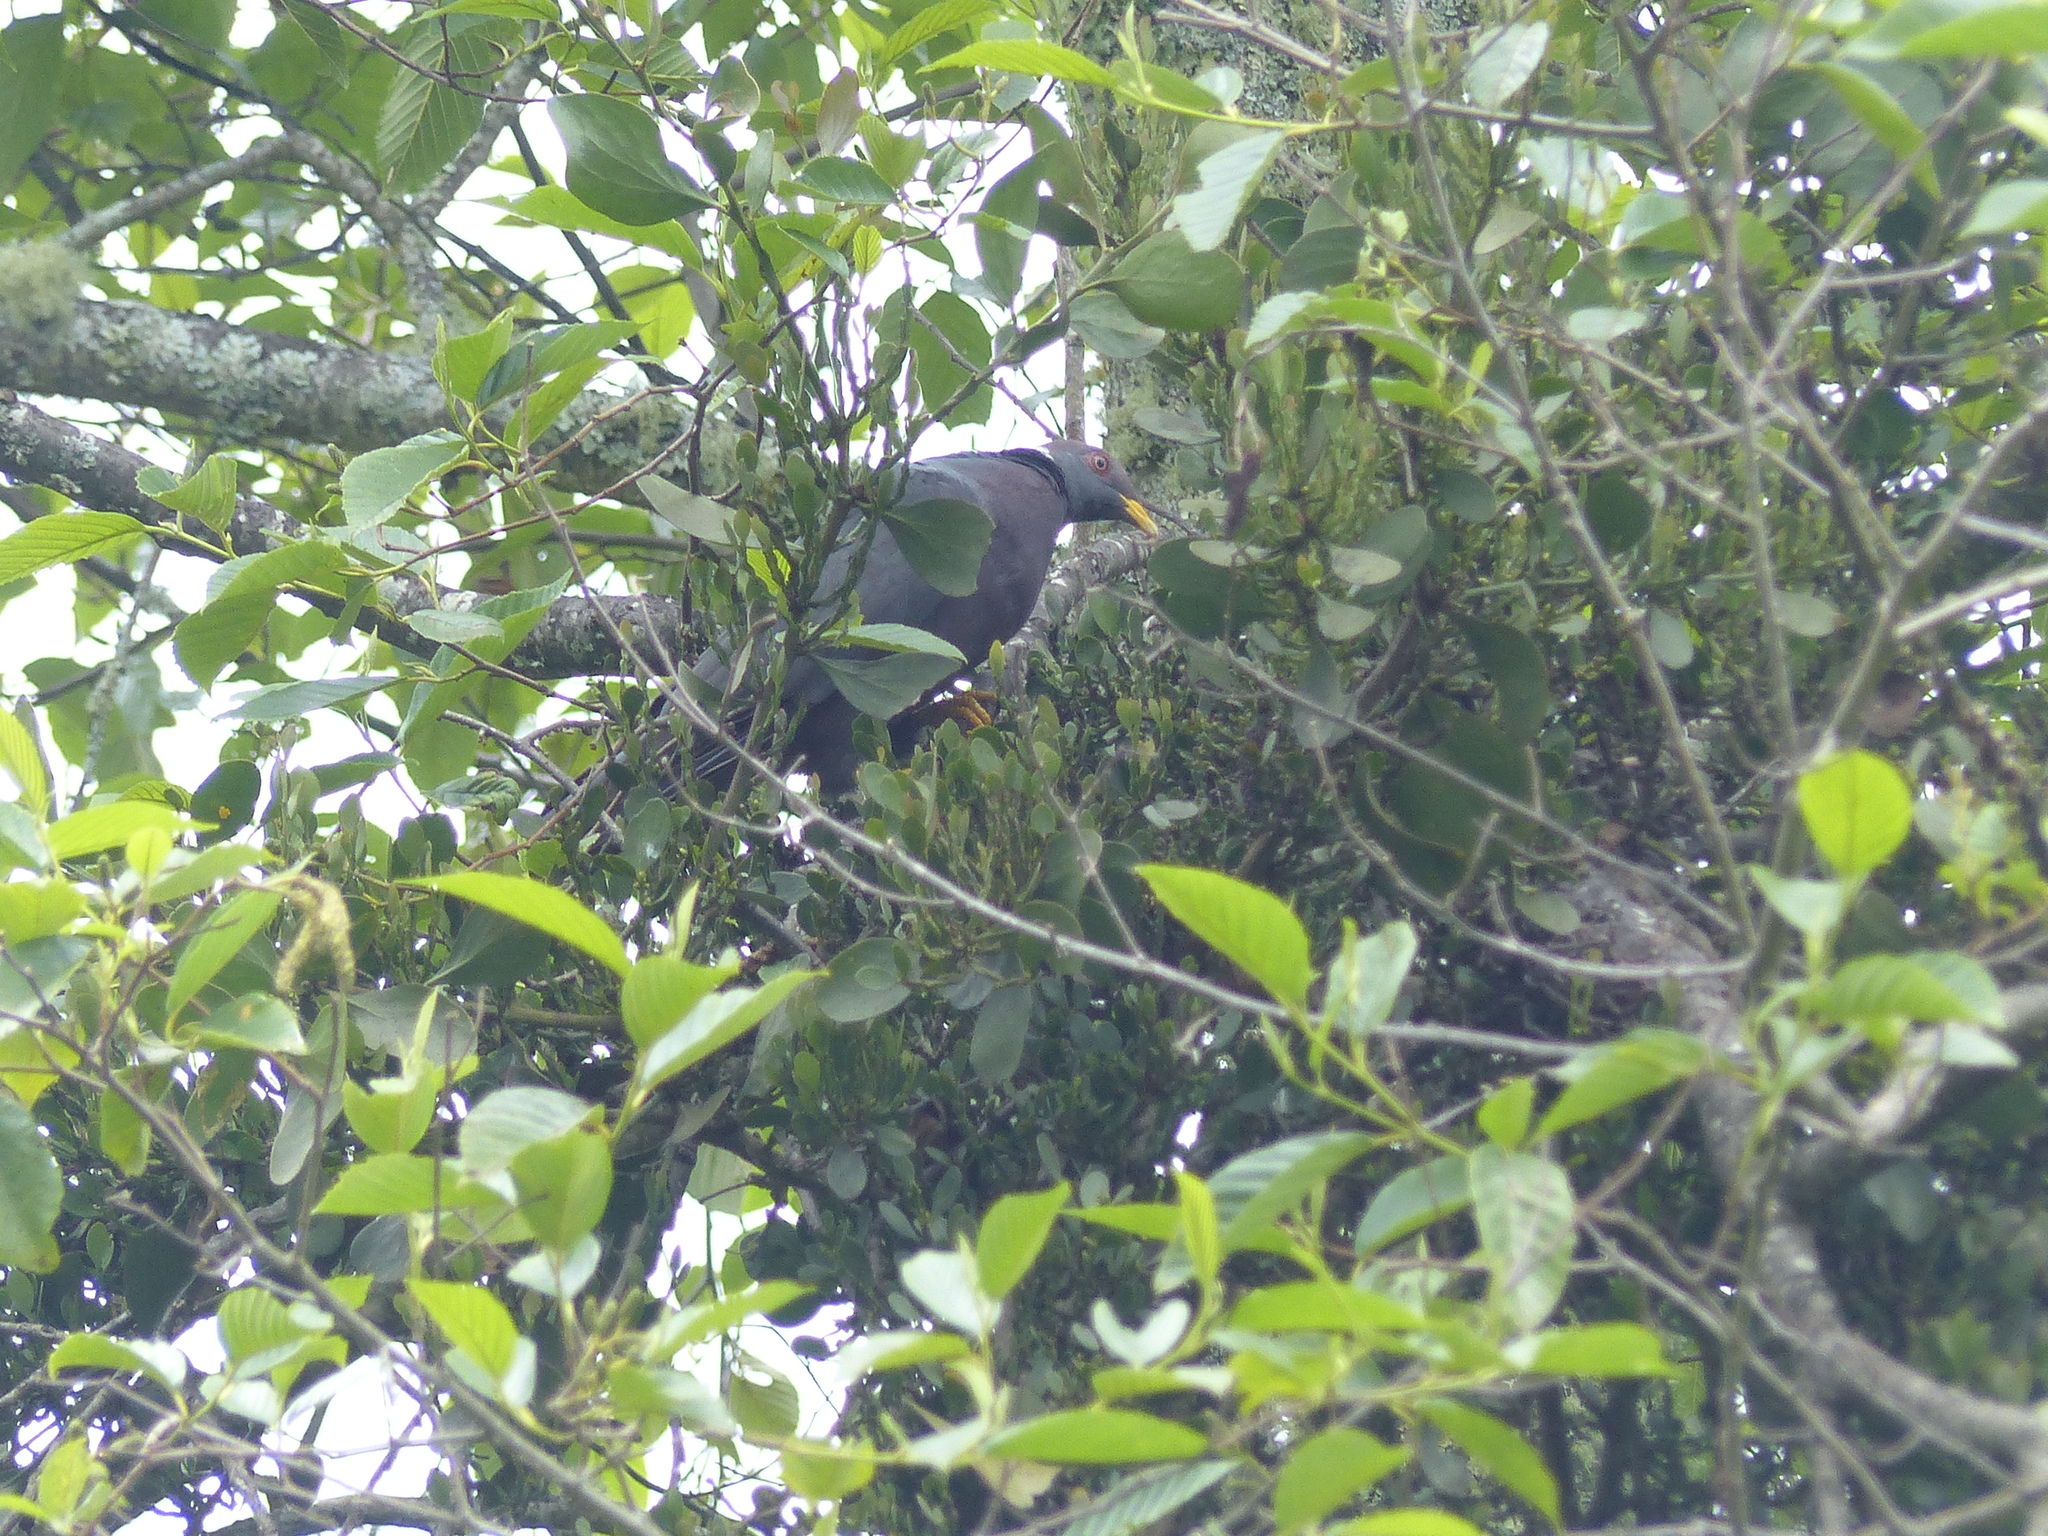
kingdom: Animalia
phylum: Chordata
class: Aves
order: Columbiformes
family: Columbidae
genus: Patagioenas
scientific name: Patagioenas fasciata
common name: Band-tailed pigeon
